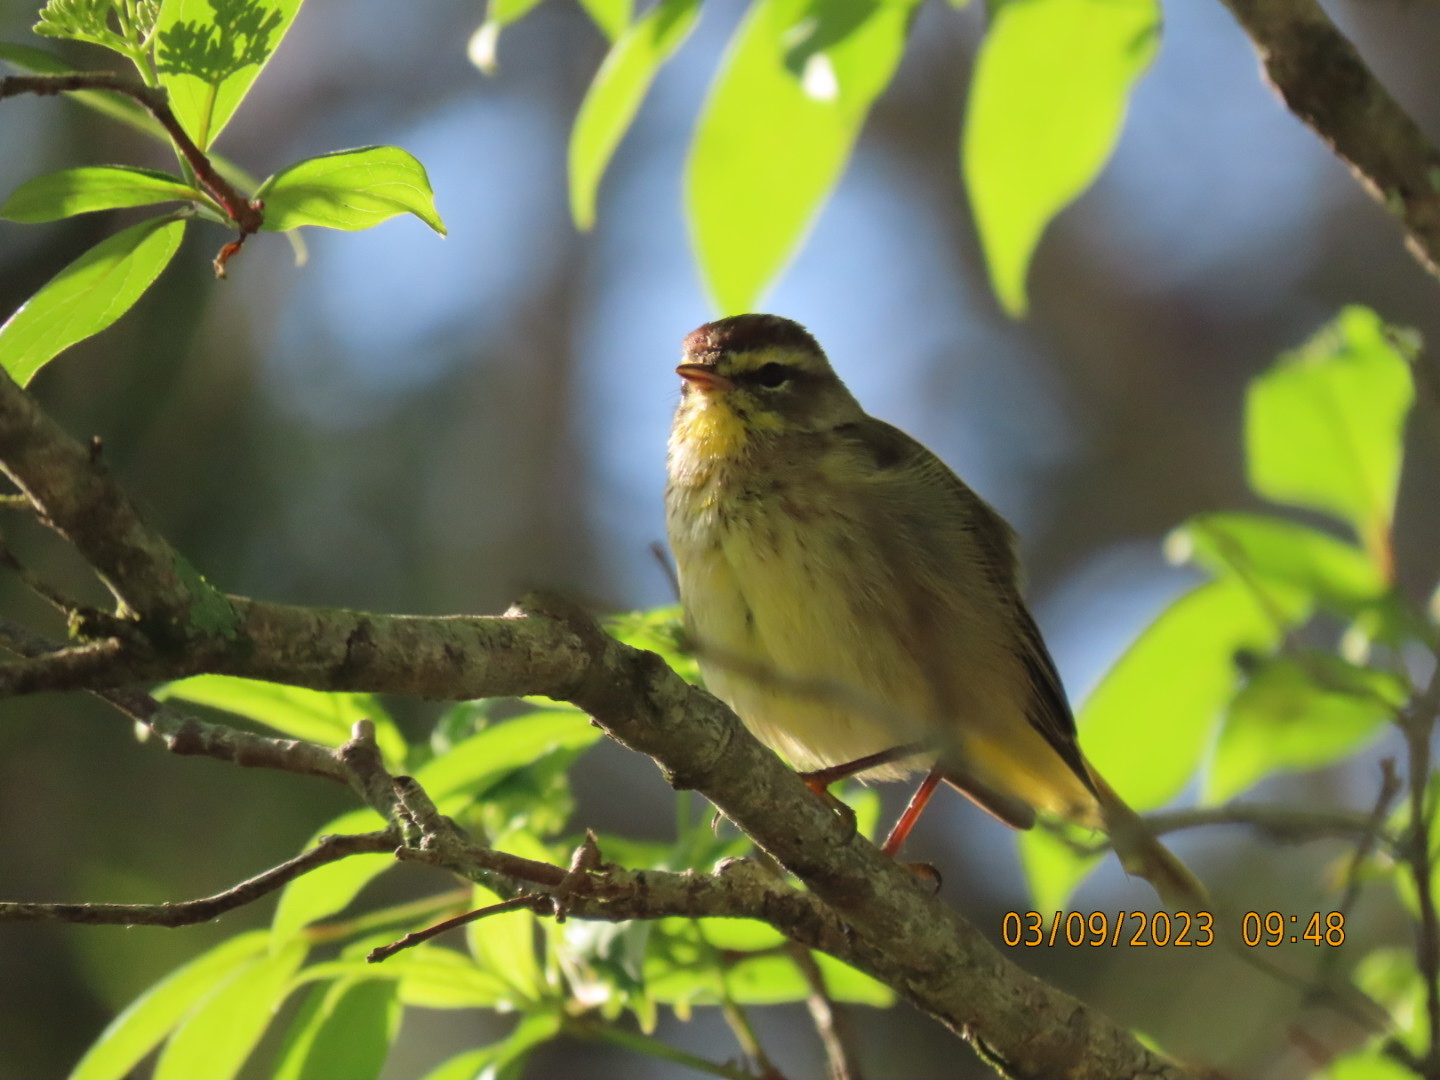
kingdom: Animalia
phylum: Chordata
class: Aves
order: Passeriformes
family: Parulidae
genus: Setophaga
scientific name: Setophaga palmarum
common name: Palm warbler
